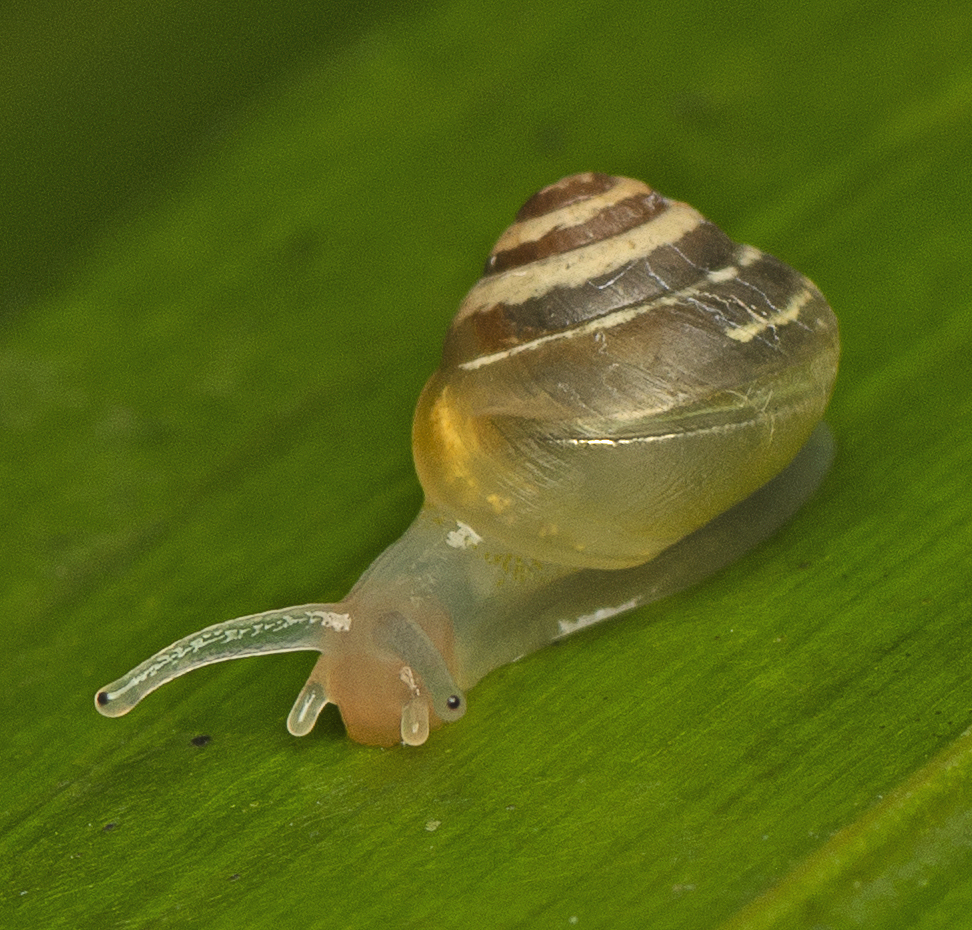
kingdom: Animalia
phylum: Mollusca
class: Gastropoda
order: Stylommatophora
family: Euconulidae
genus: Coneuplecta
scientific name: Coneuplecta pampini
